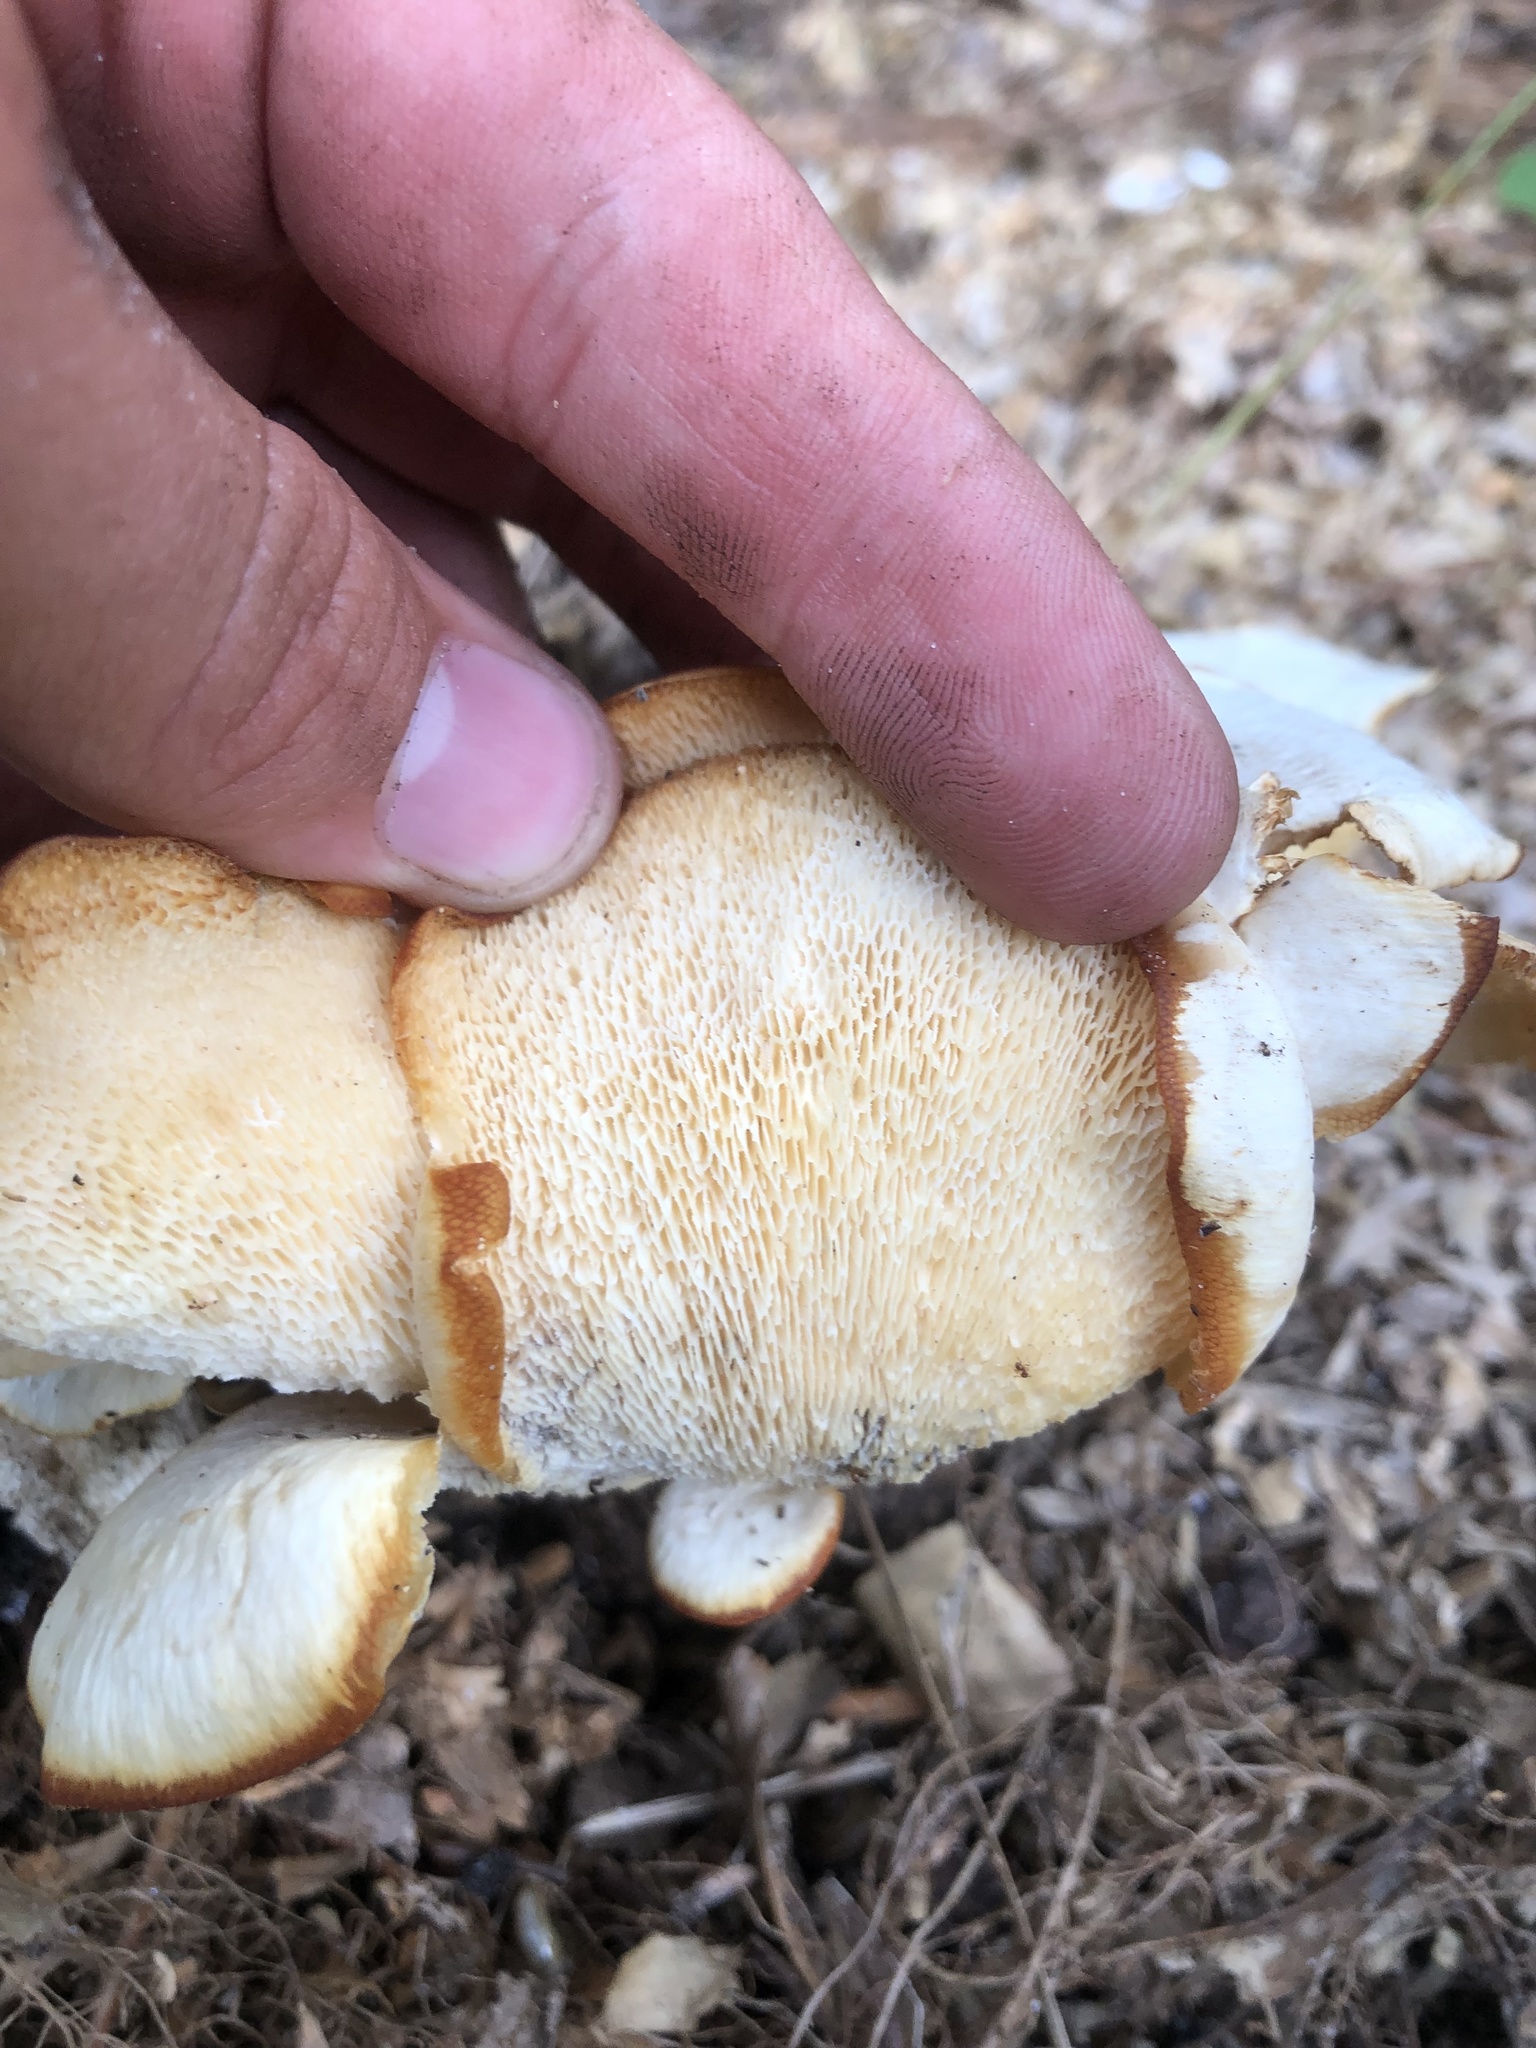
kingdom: Fungi
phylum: Basidiomycota
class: Agaricomycetes
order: Polyporales
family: Polyporaceae
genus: Favolus
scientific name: Favolus tenuiculus
